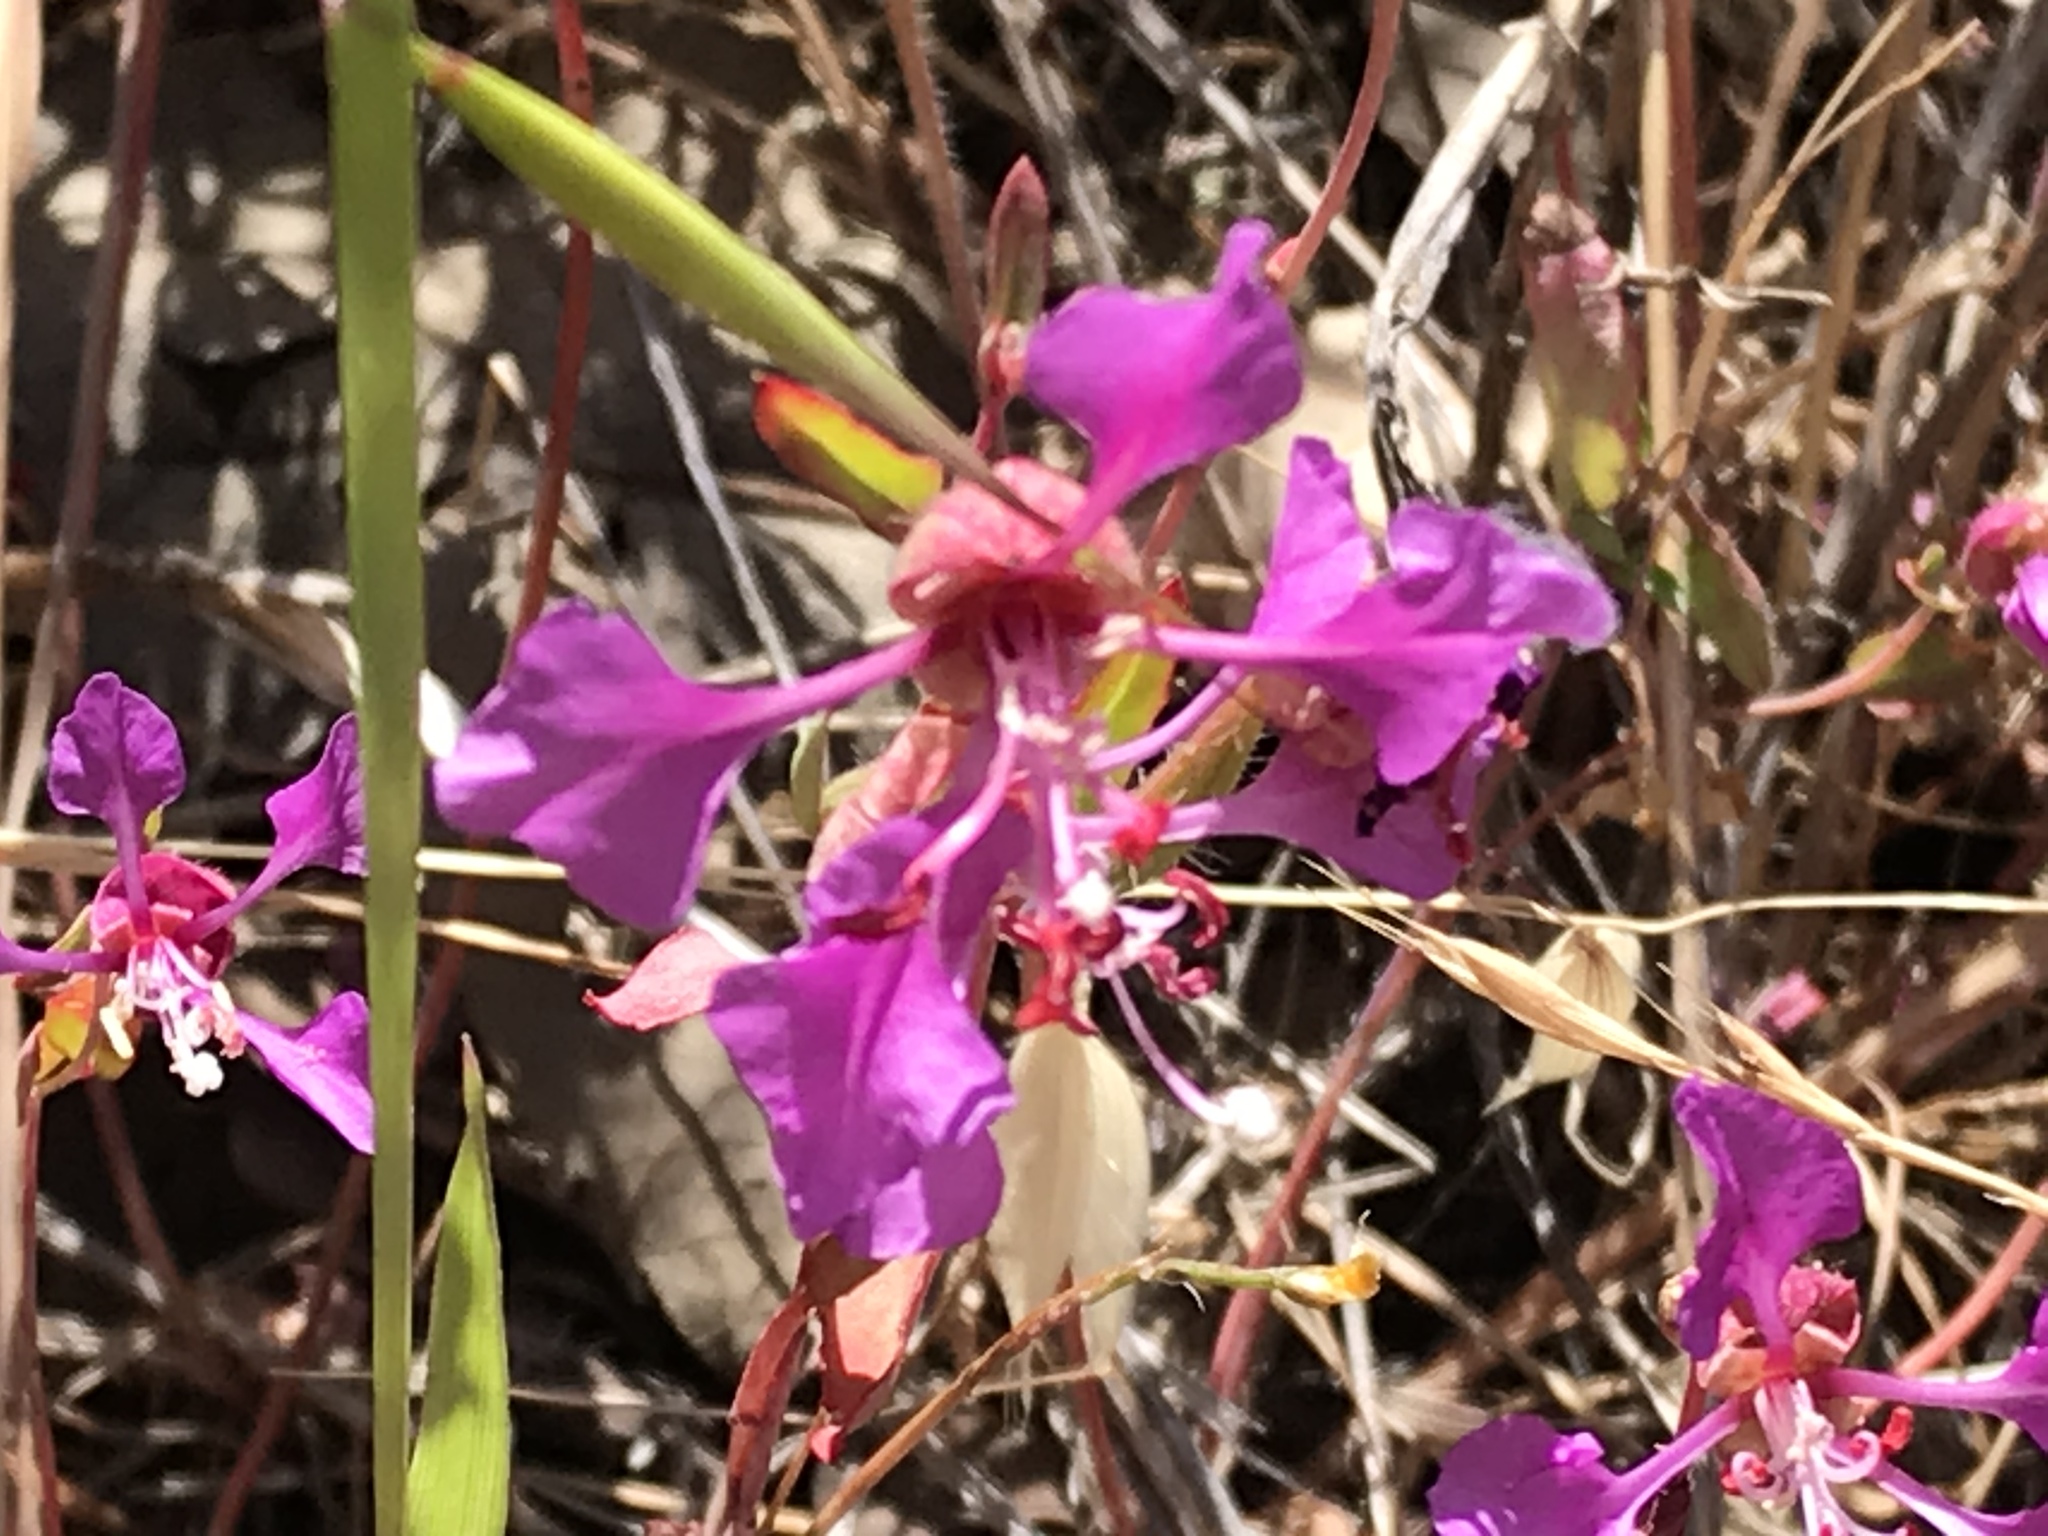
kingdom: Plantae
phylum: Tracheophyta
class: Magnoliopsida
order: Myrtales
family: Onagraceae
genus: Clarkia
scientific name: Clarkia unguiculata
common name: Clarkia
